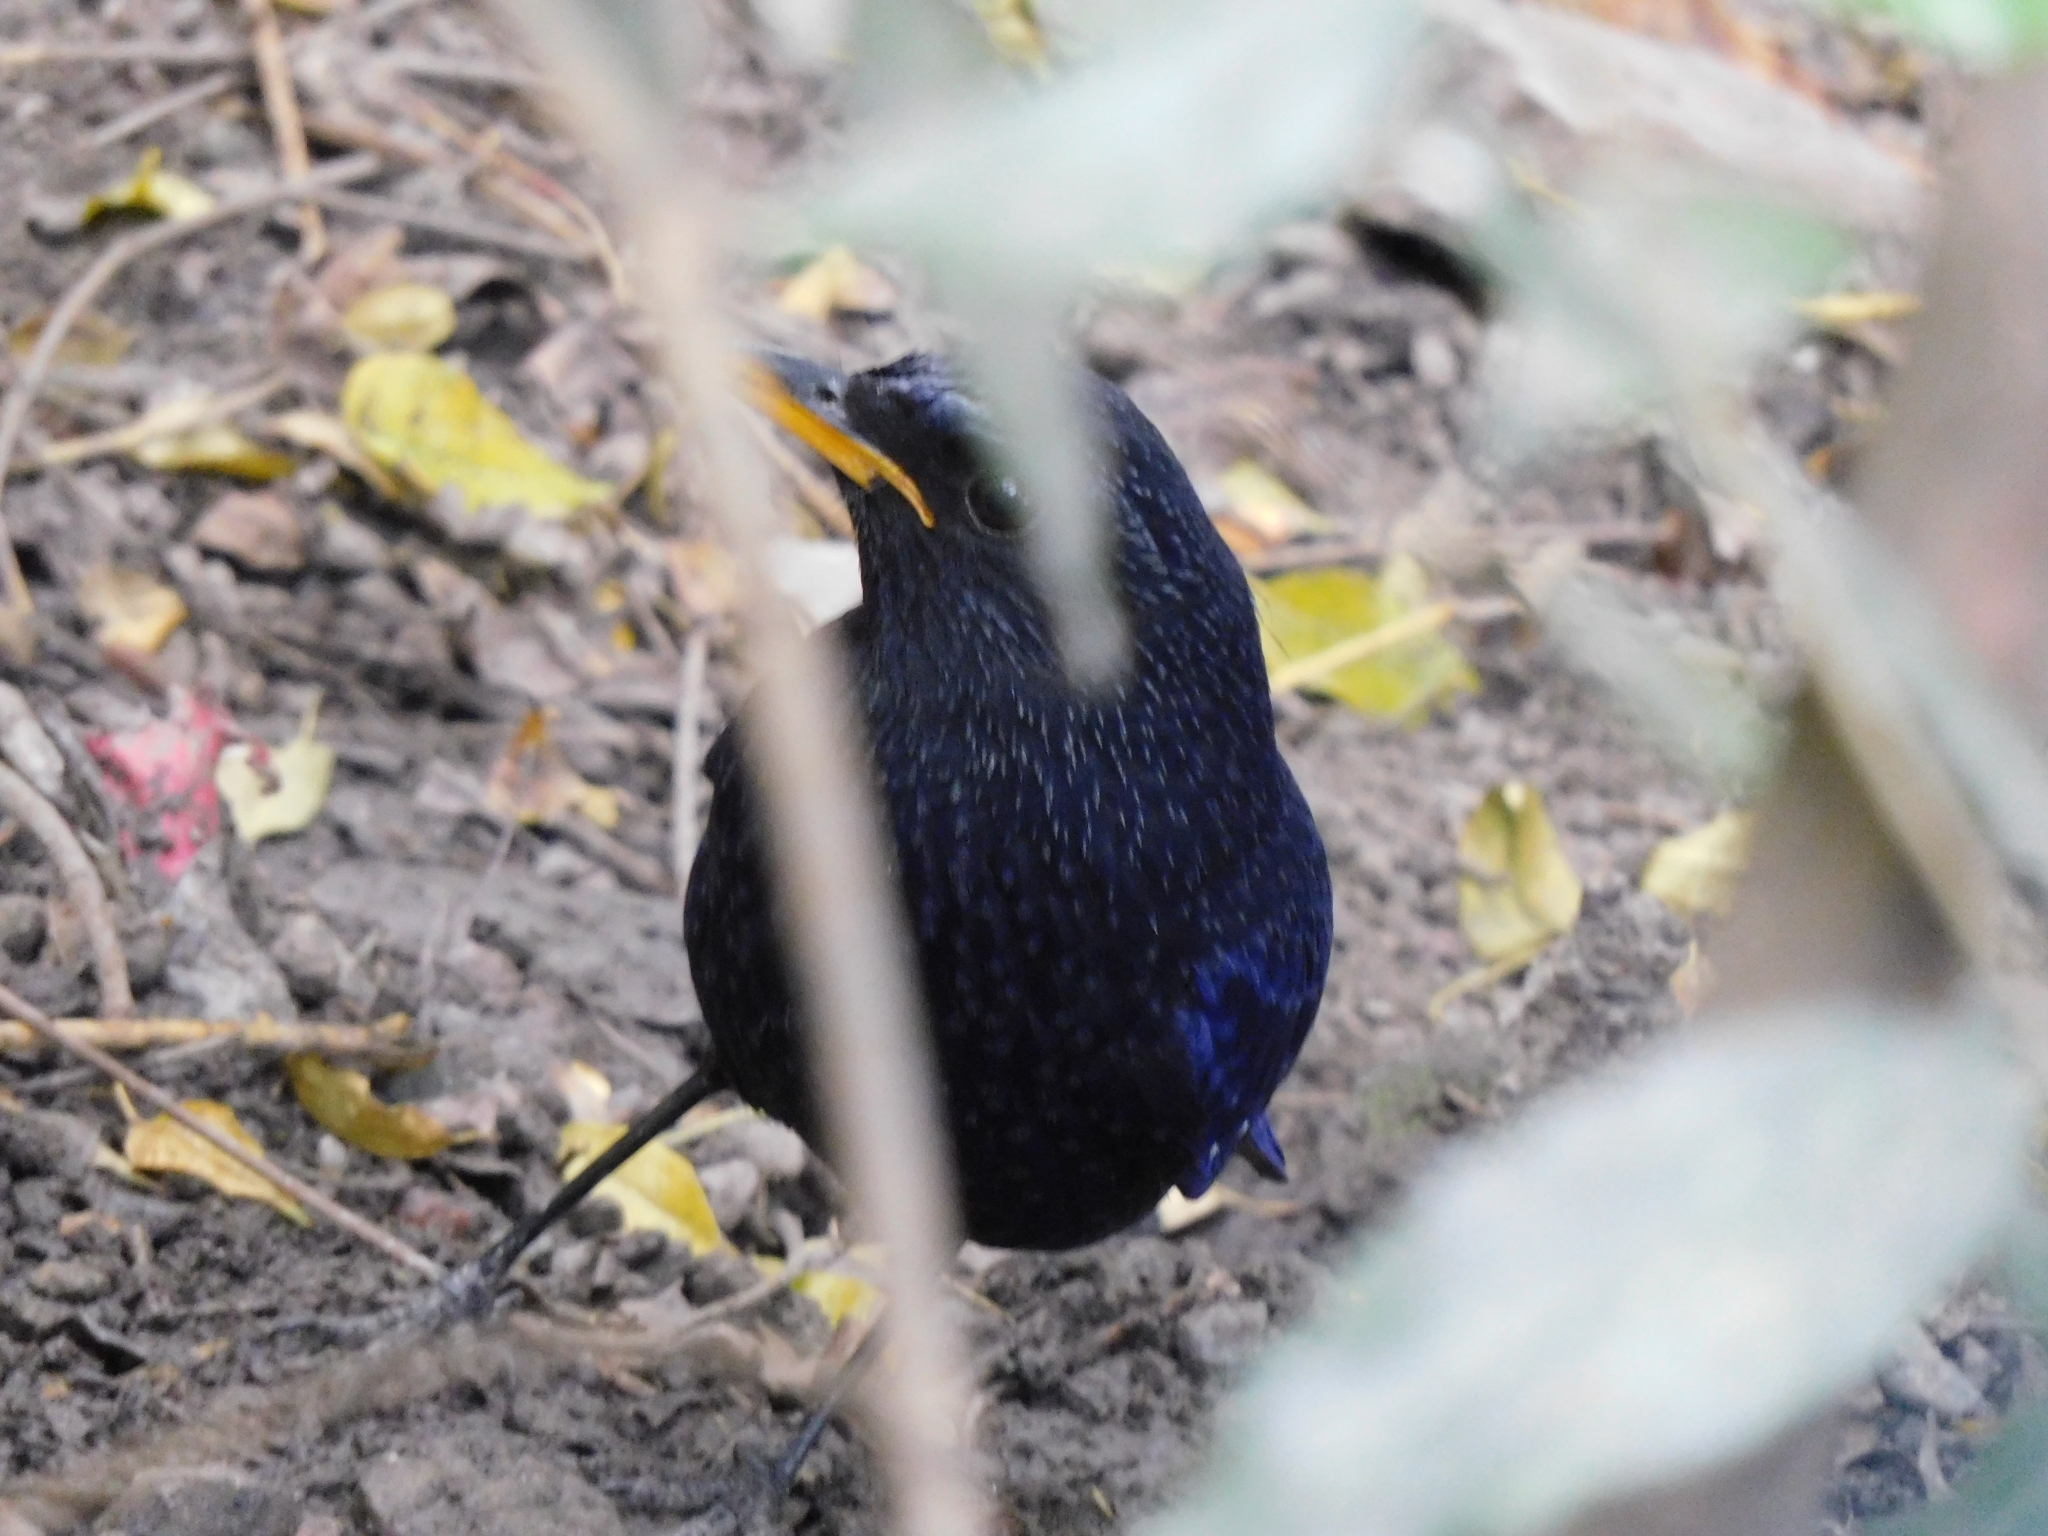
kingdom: Animalia
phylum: Chordata
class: Aves
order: Passeriformes
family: Muscicapidae
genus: Myophonus
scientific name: Myophonus caeruleus
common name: Blue whistling-thrush
